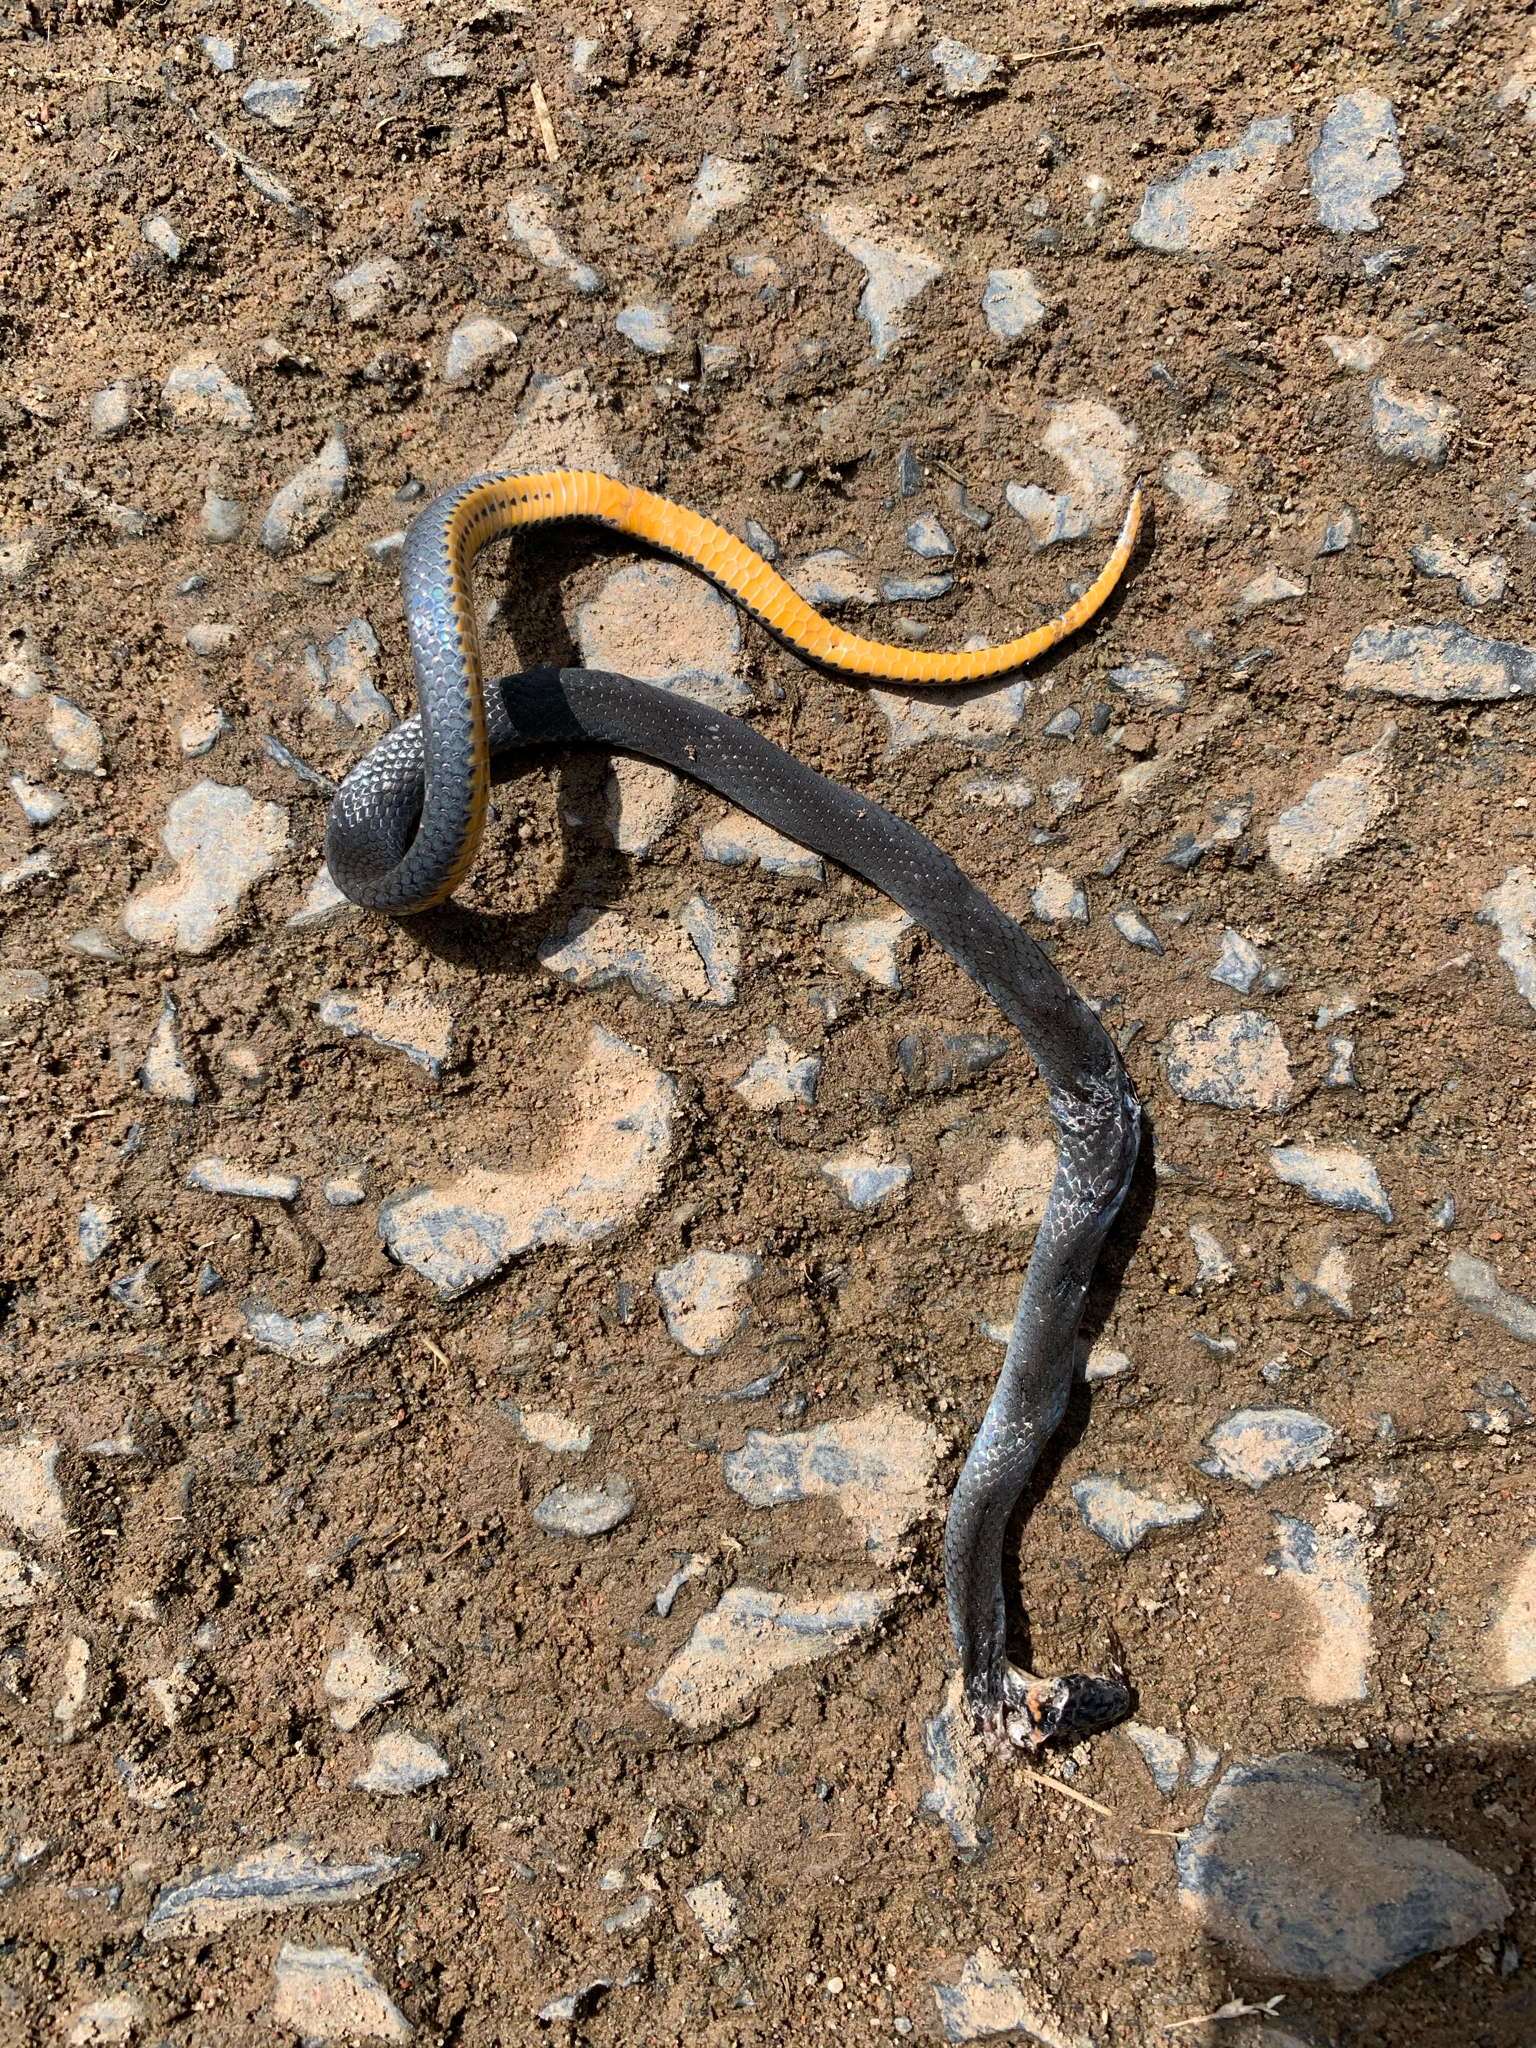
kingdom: Animalia
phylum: Chordata
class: Squamata
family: Colubridae
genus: Diadophis
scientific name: Diadophis punctatus
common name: Ringneck snake
